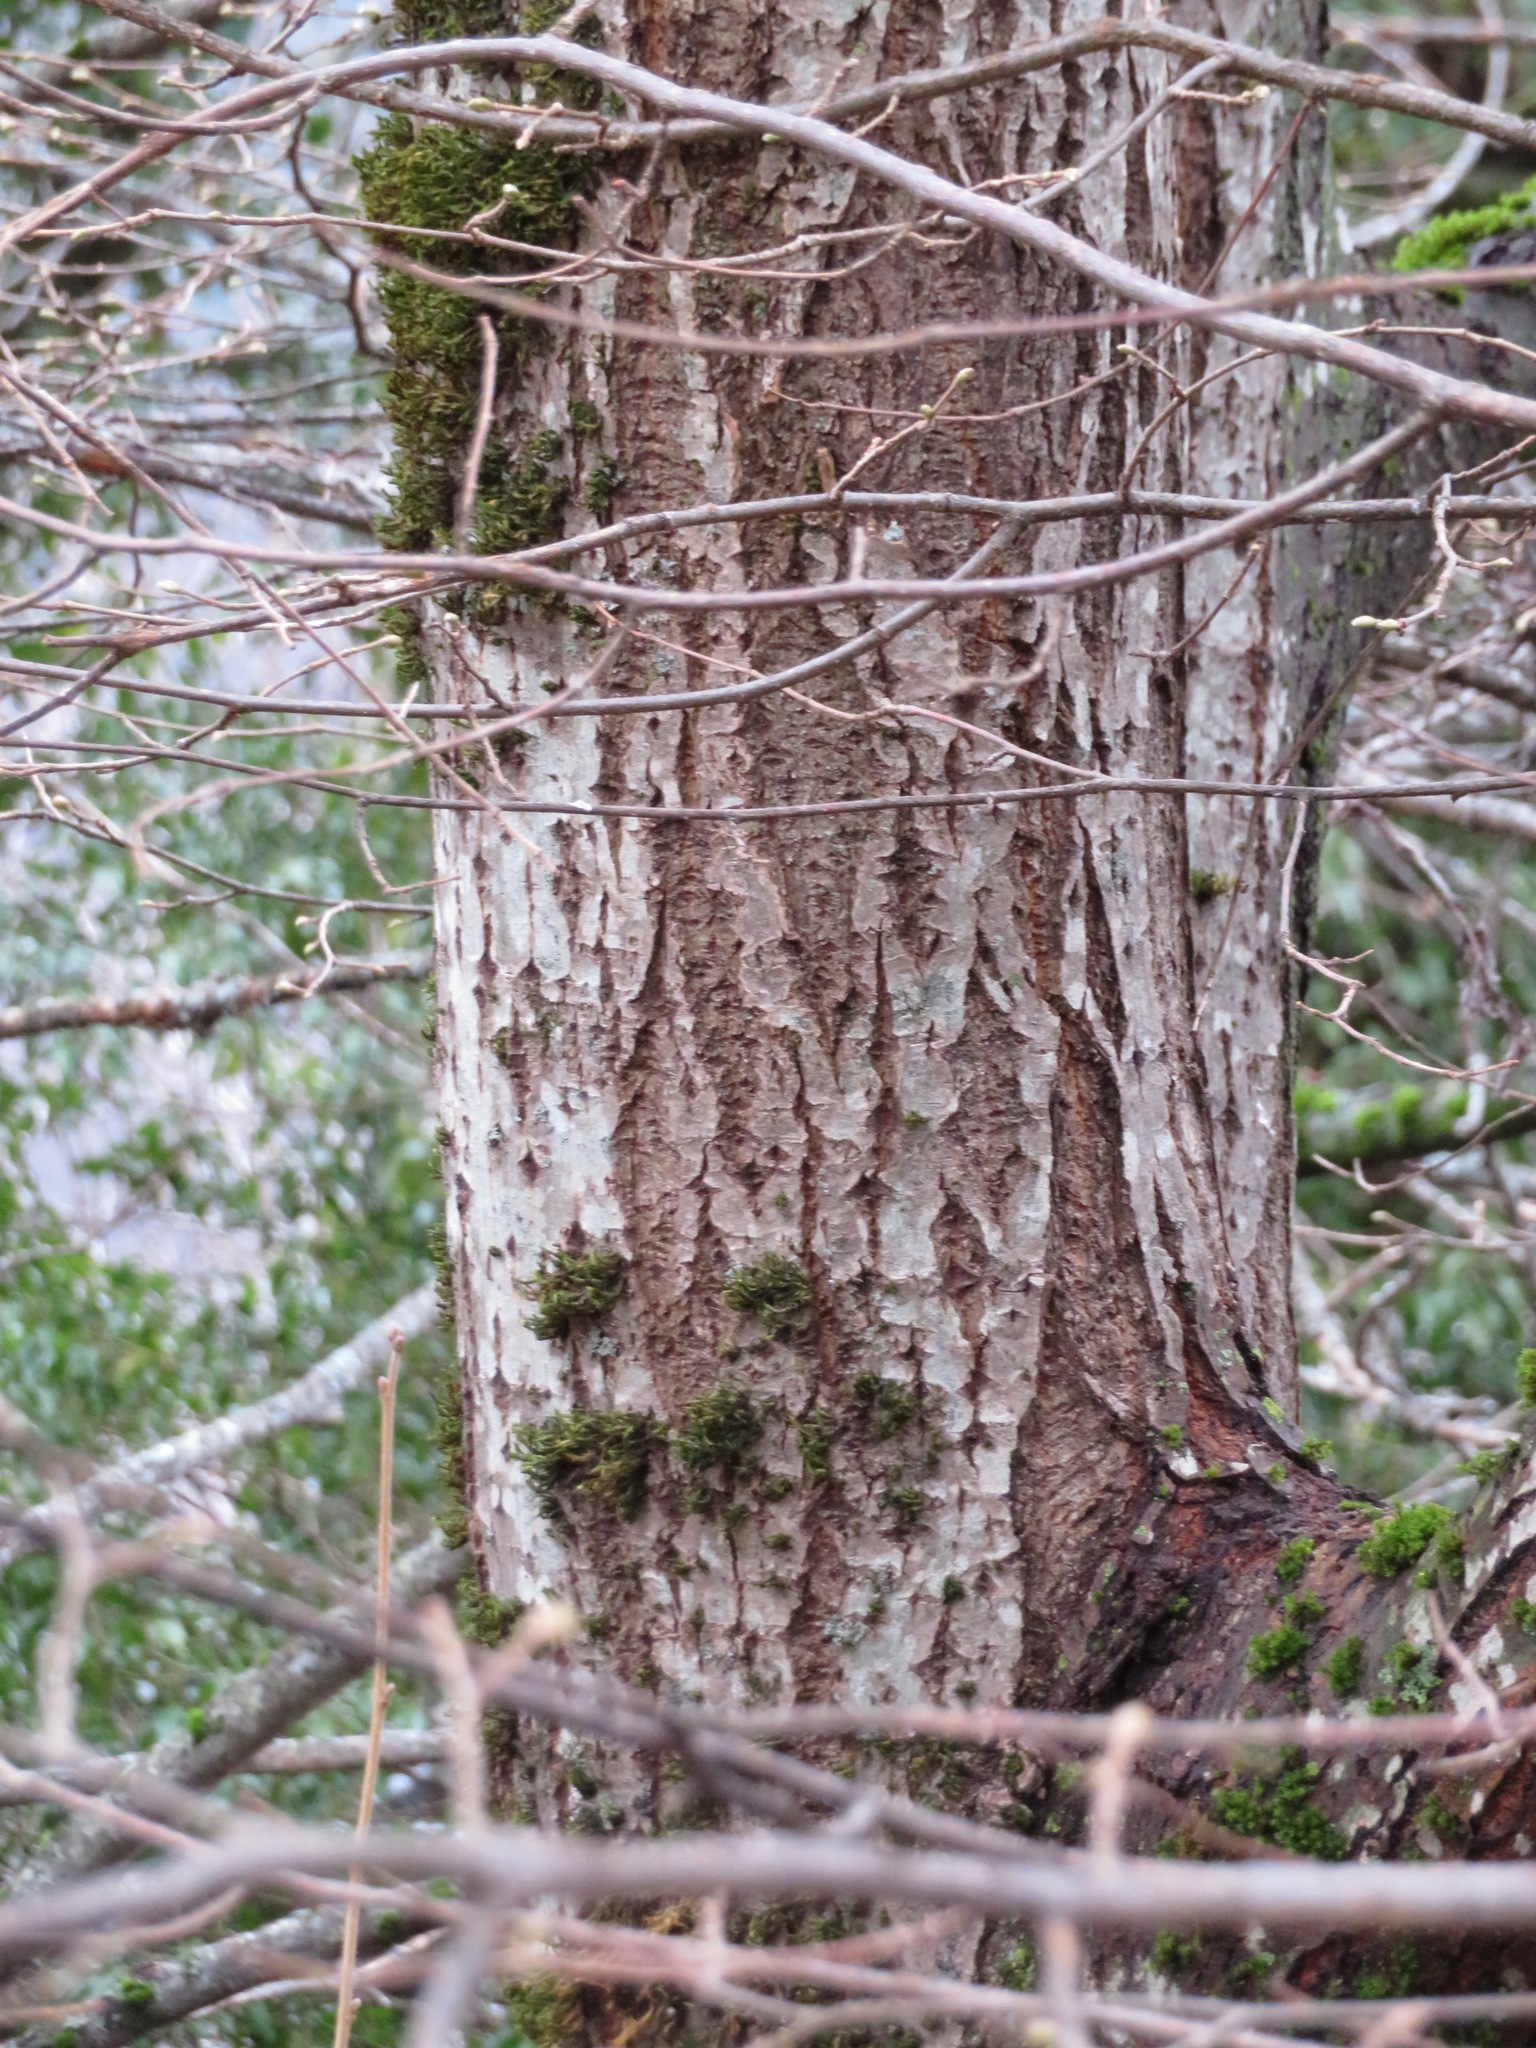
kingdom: Plantae
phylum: Tracheophyta
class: Magnoliopsida
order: Malpighiales
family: Salicaceae
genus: Salix
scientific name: Salix caprea
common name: Goat willow
